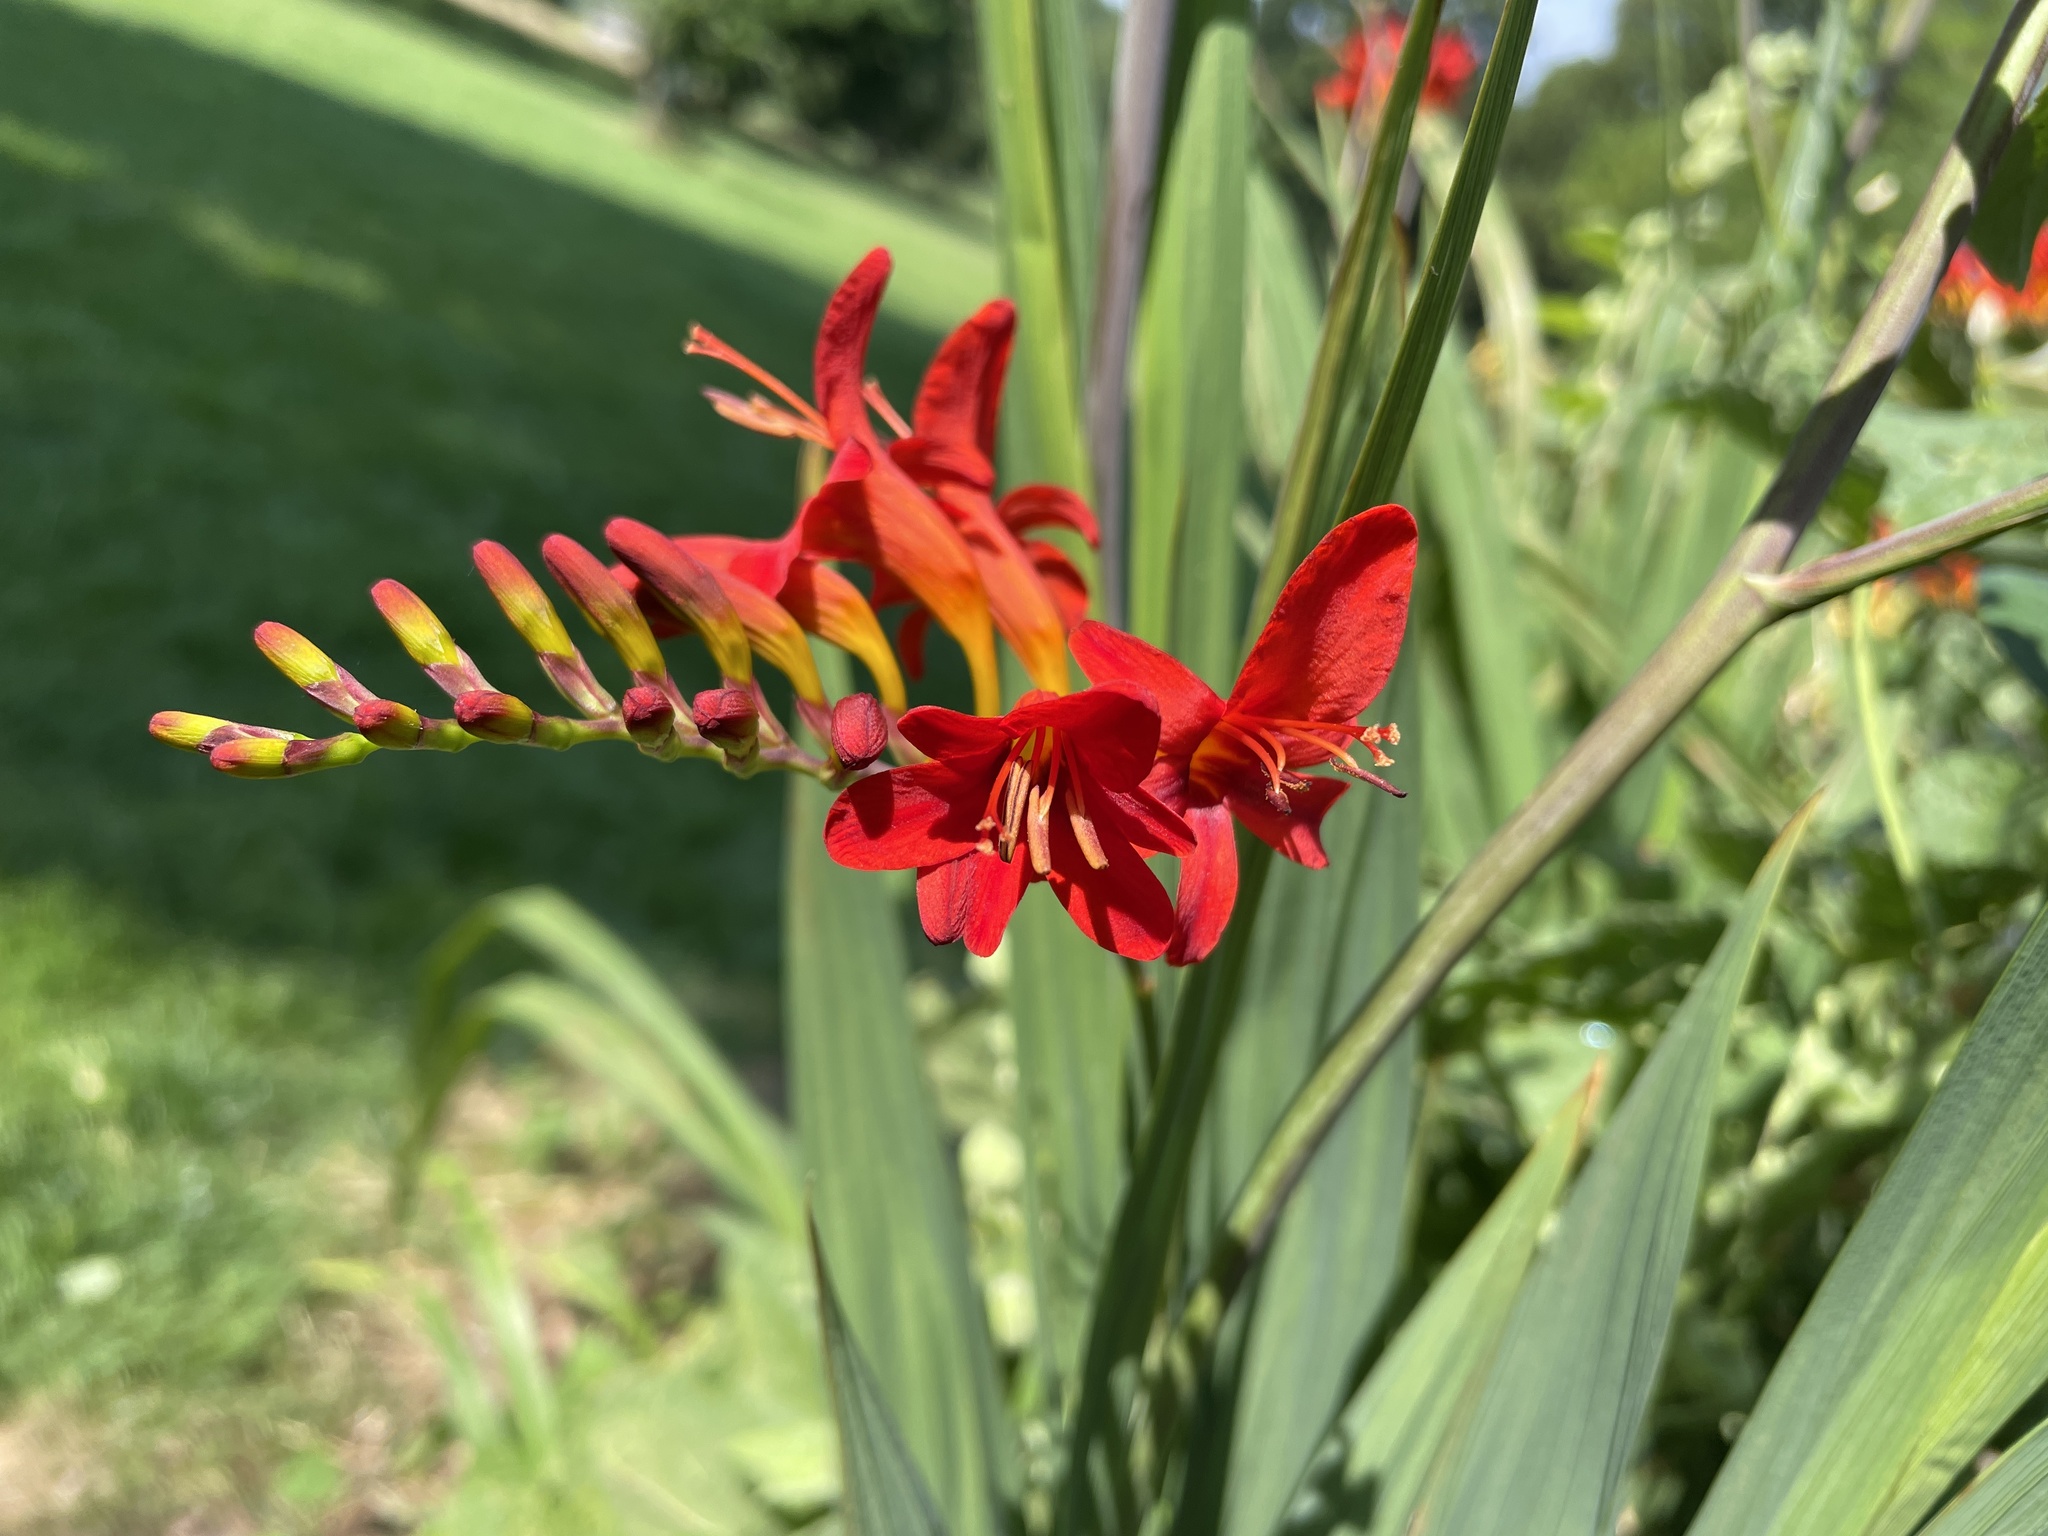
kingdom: Plantae
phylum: Tracheophyta
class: Liliopsida
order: Asparagales
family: Iridaceae
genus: Crocosmia
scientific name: Crocosmia
